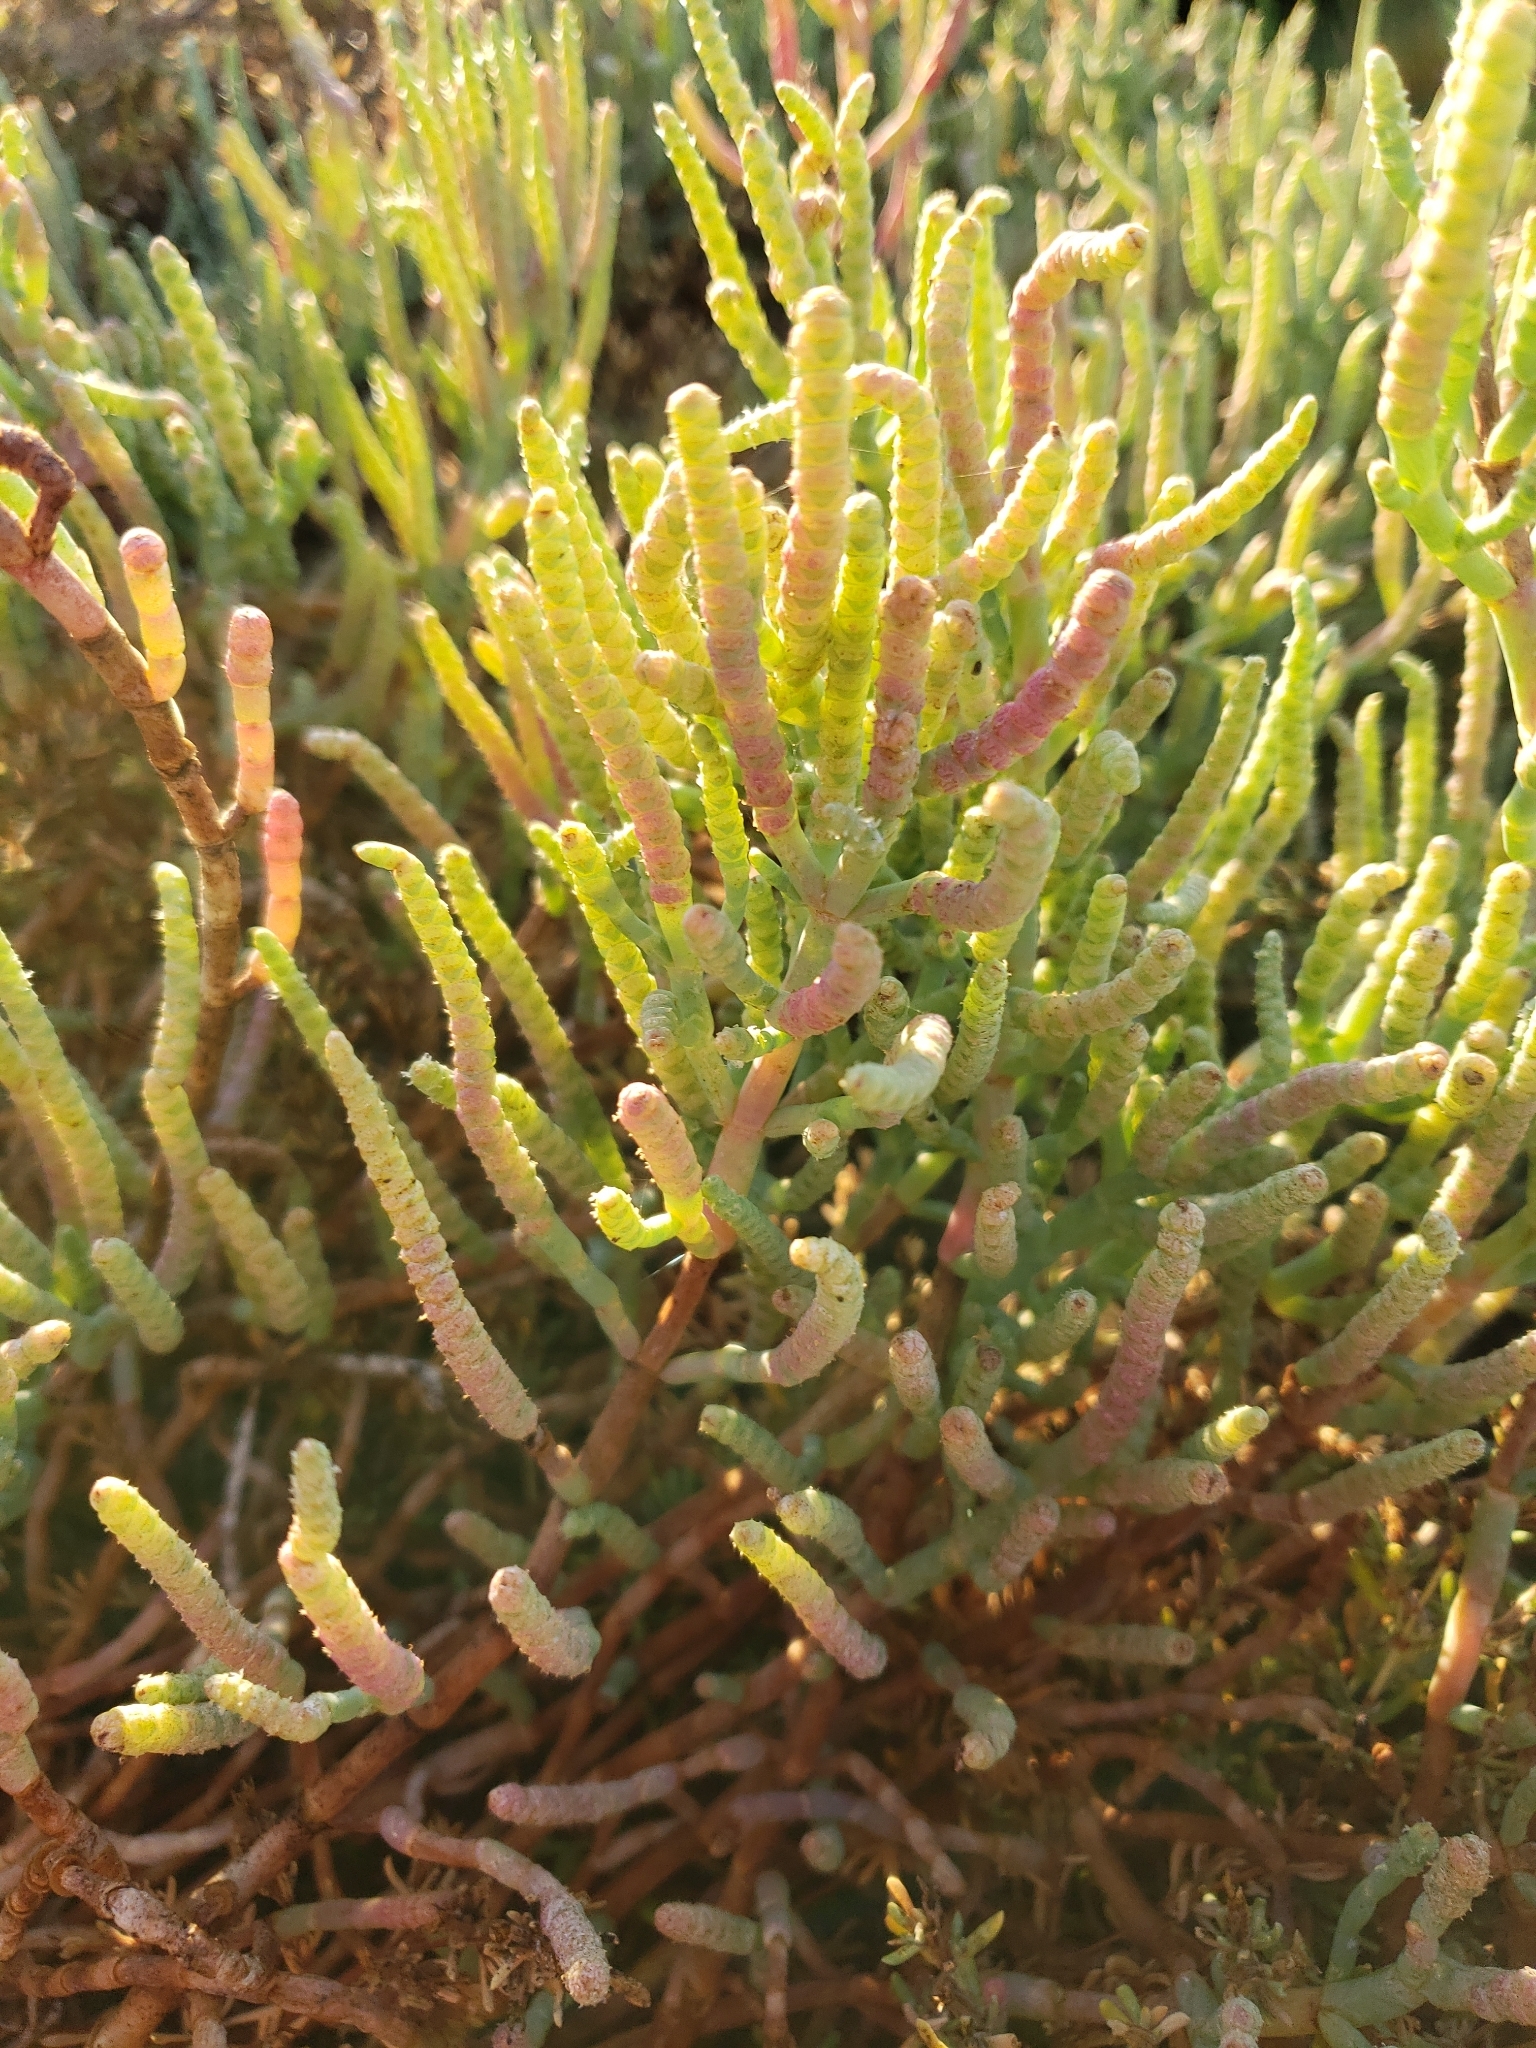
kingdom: Plantae
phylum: Tracheophyta
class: Magnoliopsida
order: Caryophyllales
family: Amaranthaceae
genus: Salicornia
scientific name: Salicornia pacifica
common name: Pacific glasswort
